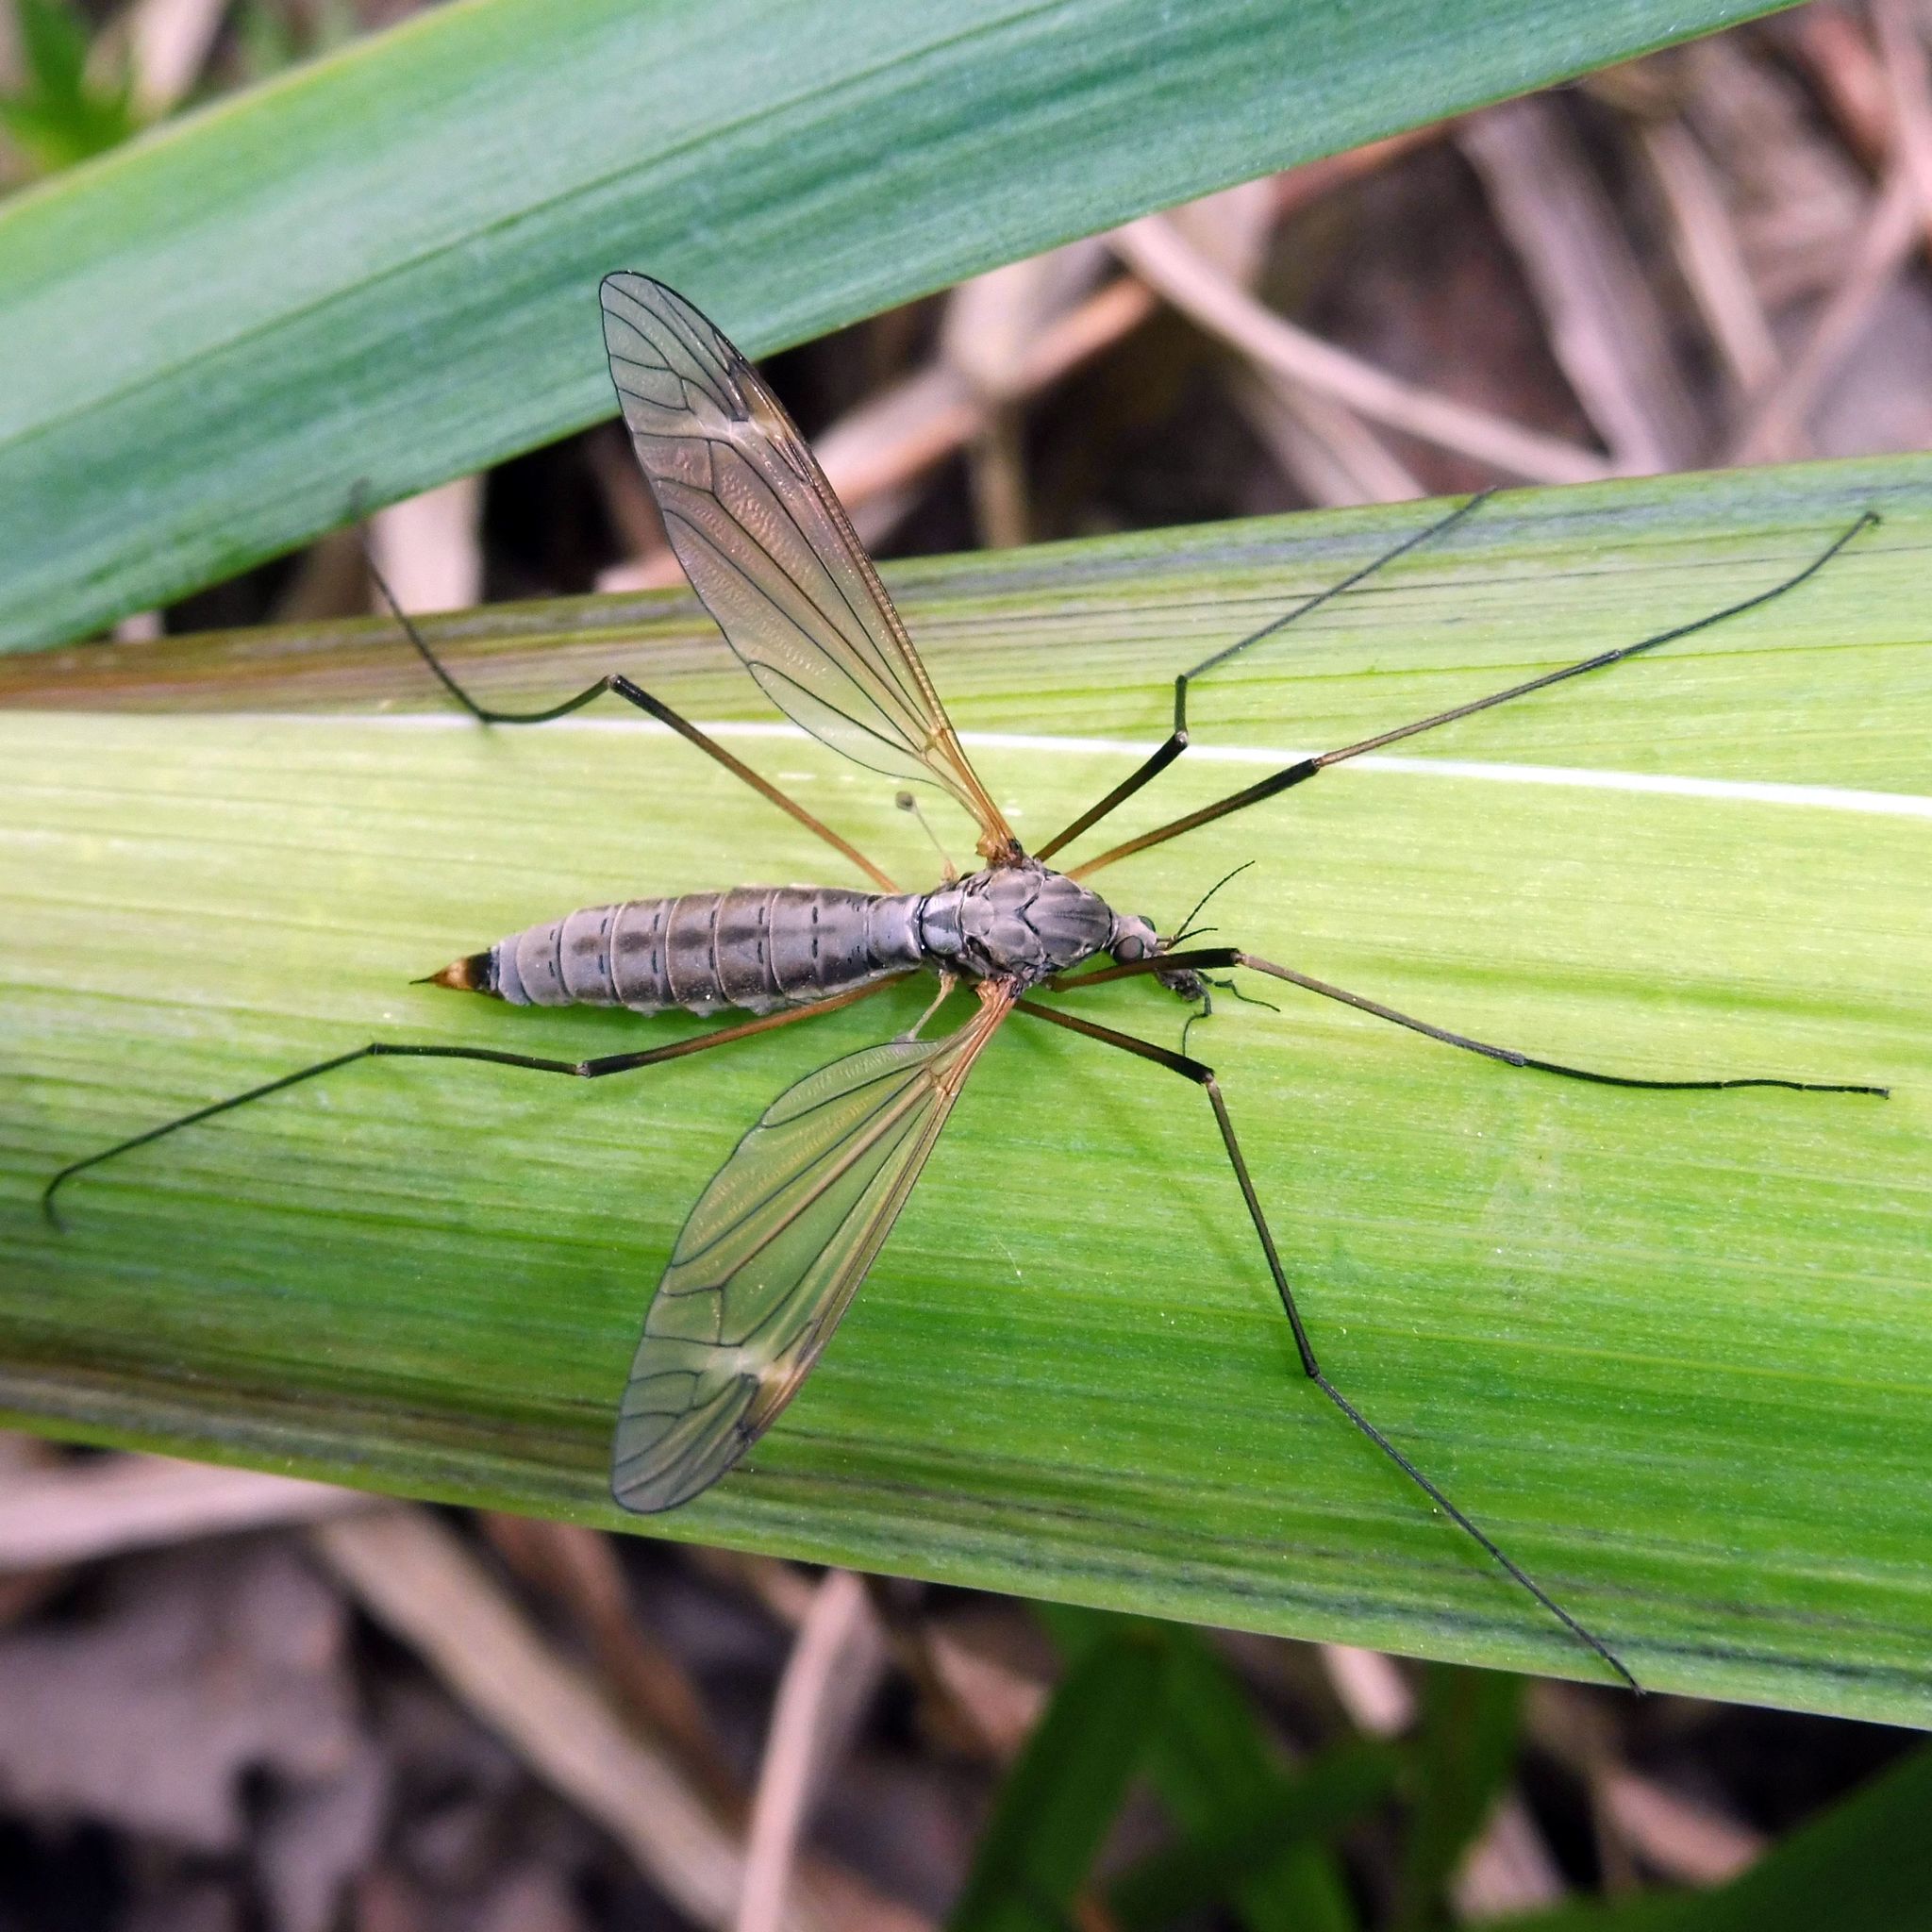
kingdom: Animalia
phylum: Arthropoda
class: Insecta
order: Diptera
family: Tipulidae
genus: Tipula
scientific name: Tipula luna
